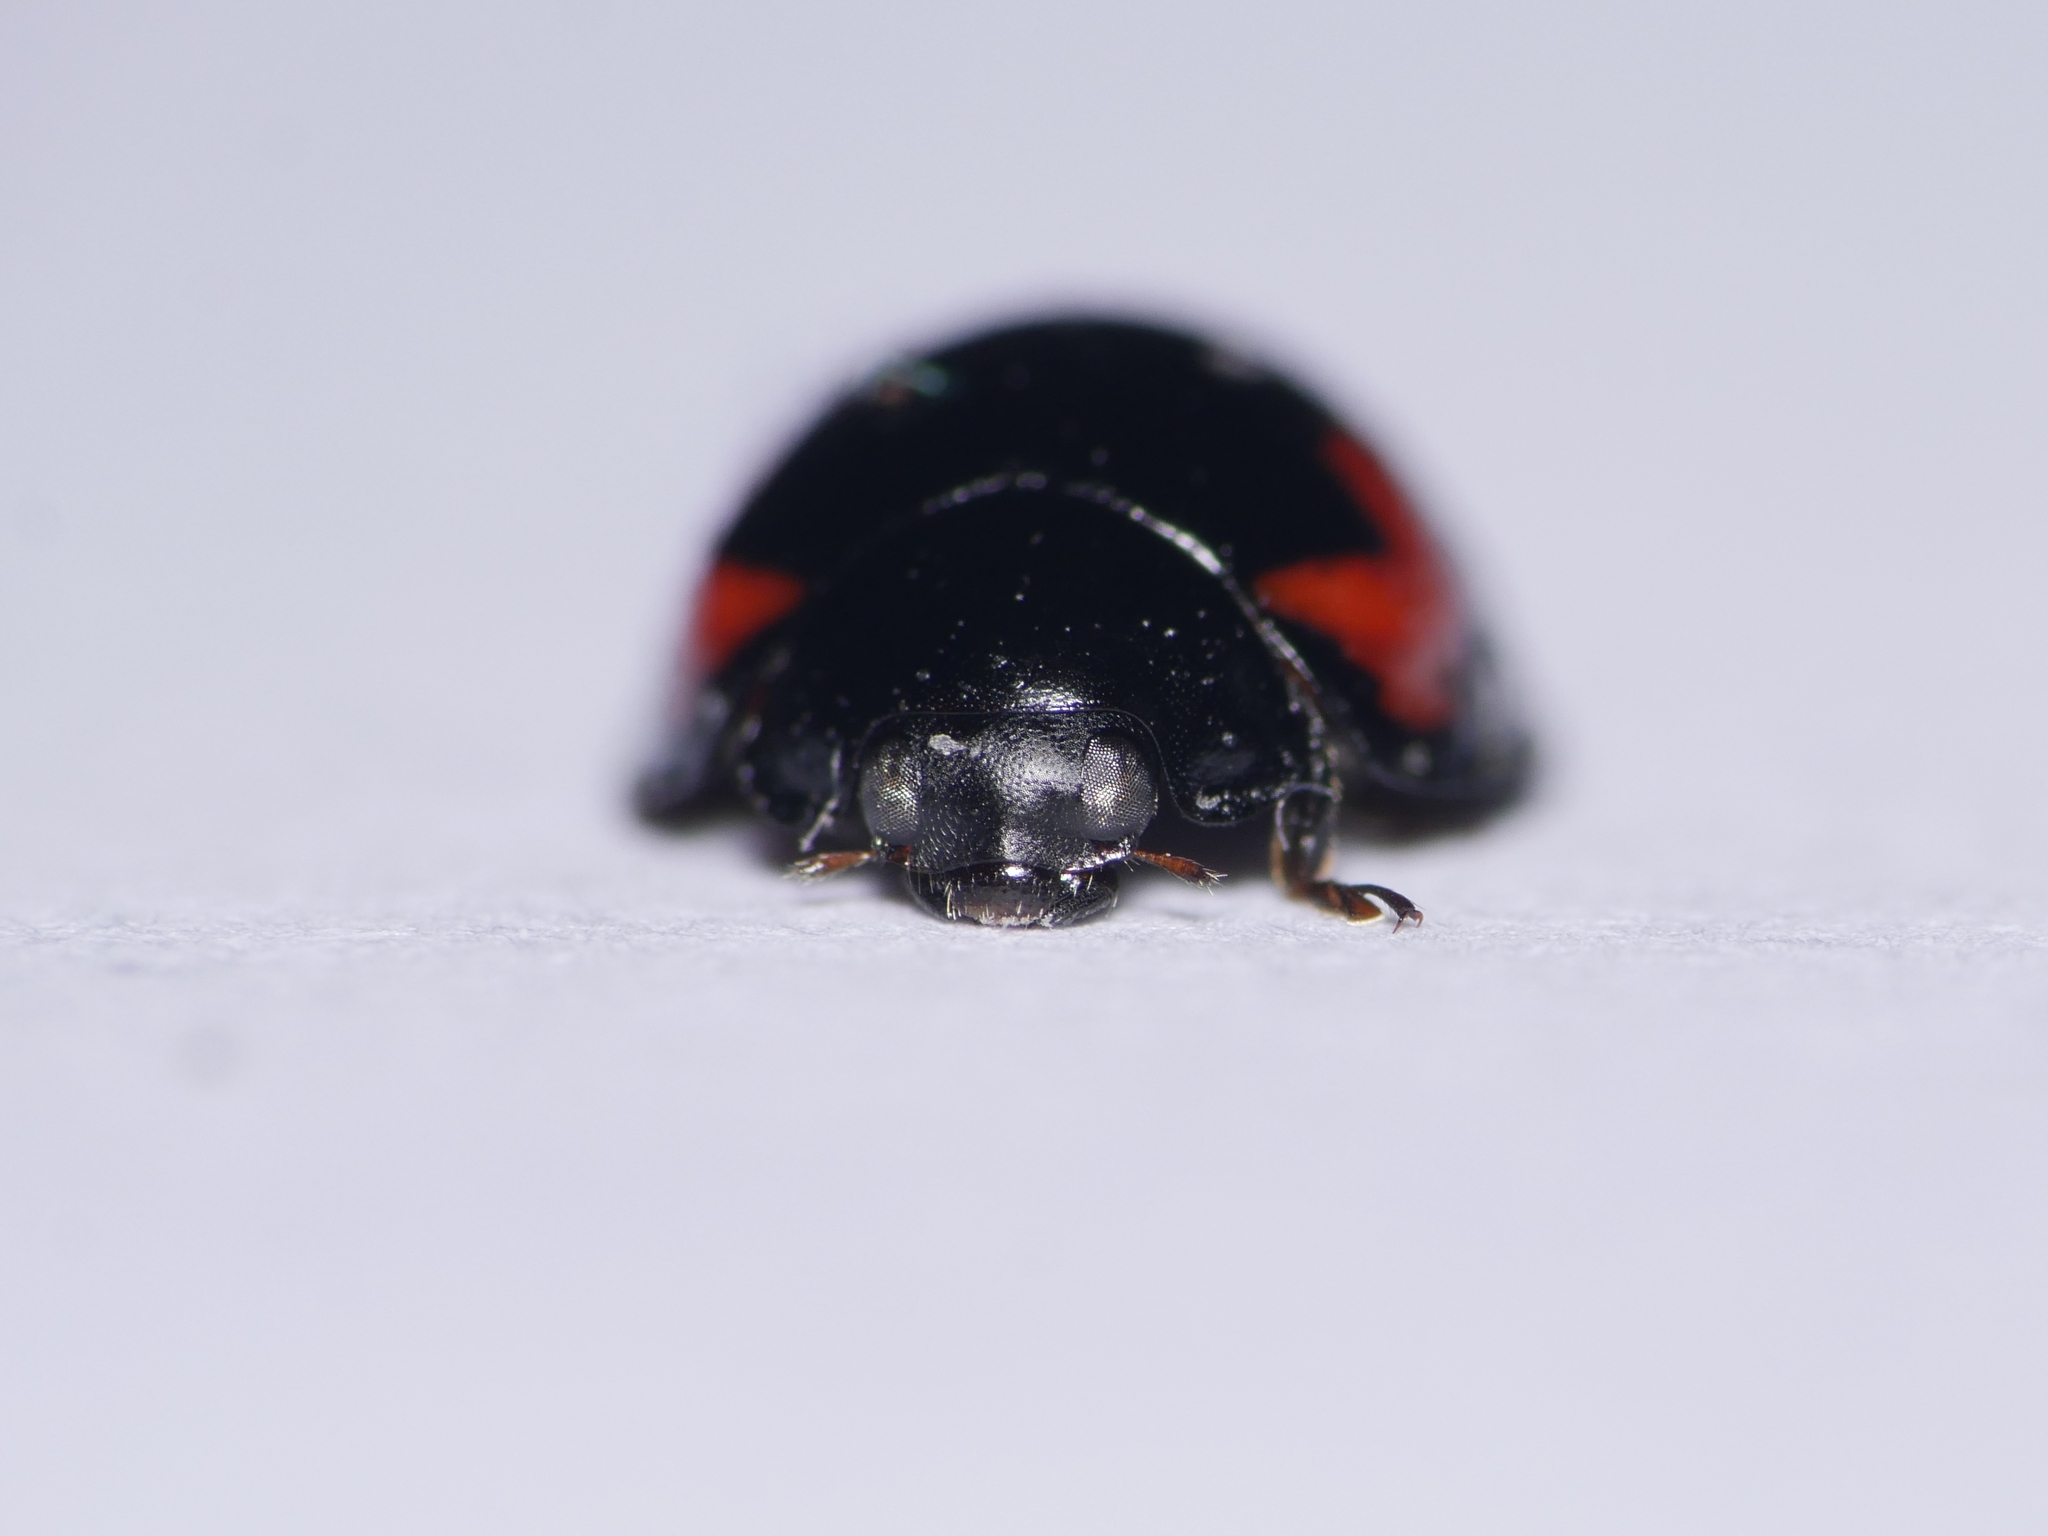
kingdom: Animalia
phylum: Arthropoda
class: Insecta
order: Coleoptera
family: Coccinellidae
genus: Brumus
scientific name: Brumus quadripustulatus
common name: Ladybird beetle
